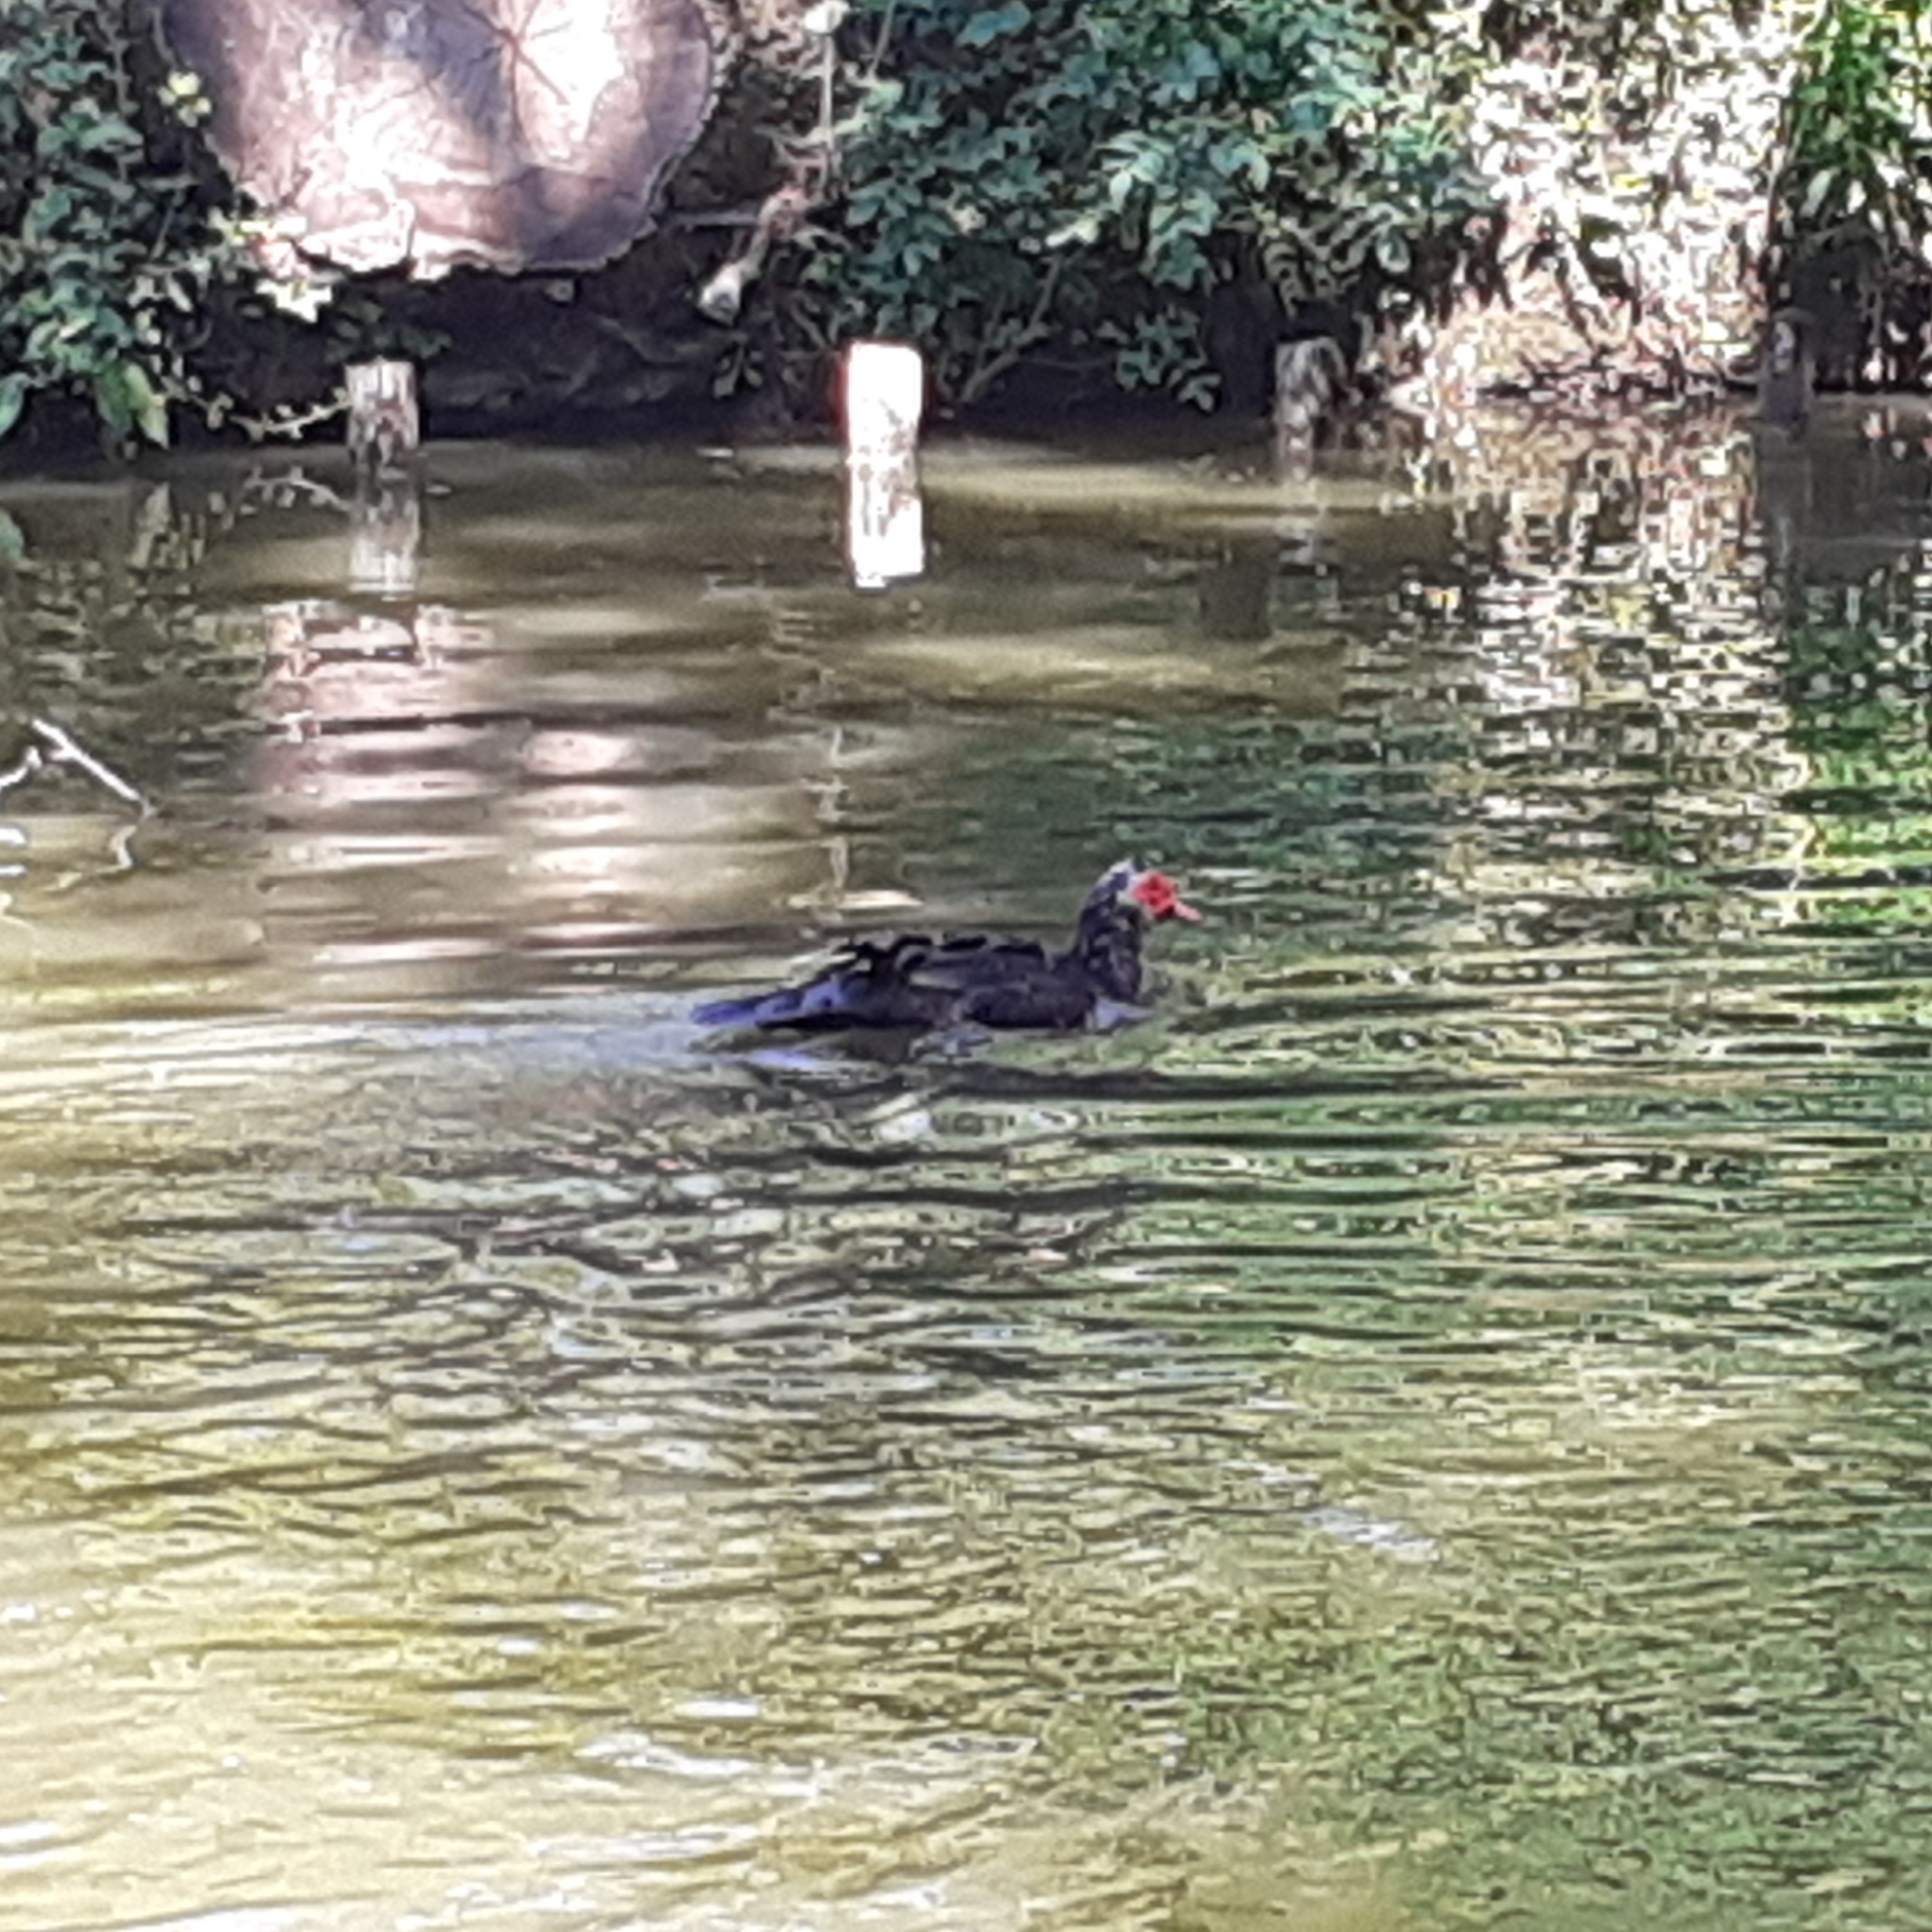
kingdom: Animalia
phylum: Chordata
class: Aves
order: Anseriformes
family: Anatidae
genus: Cairina
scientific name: Cairina moschata
